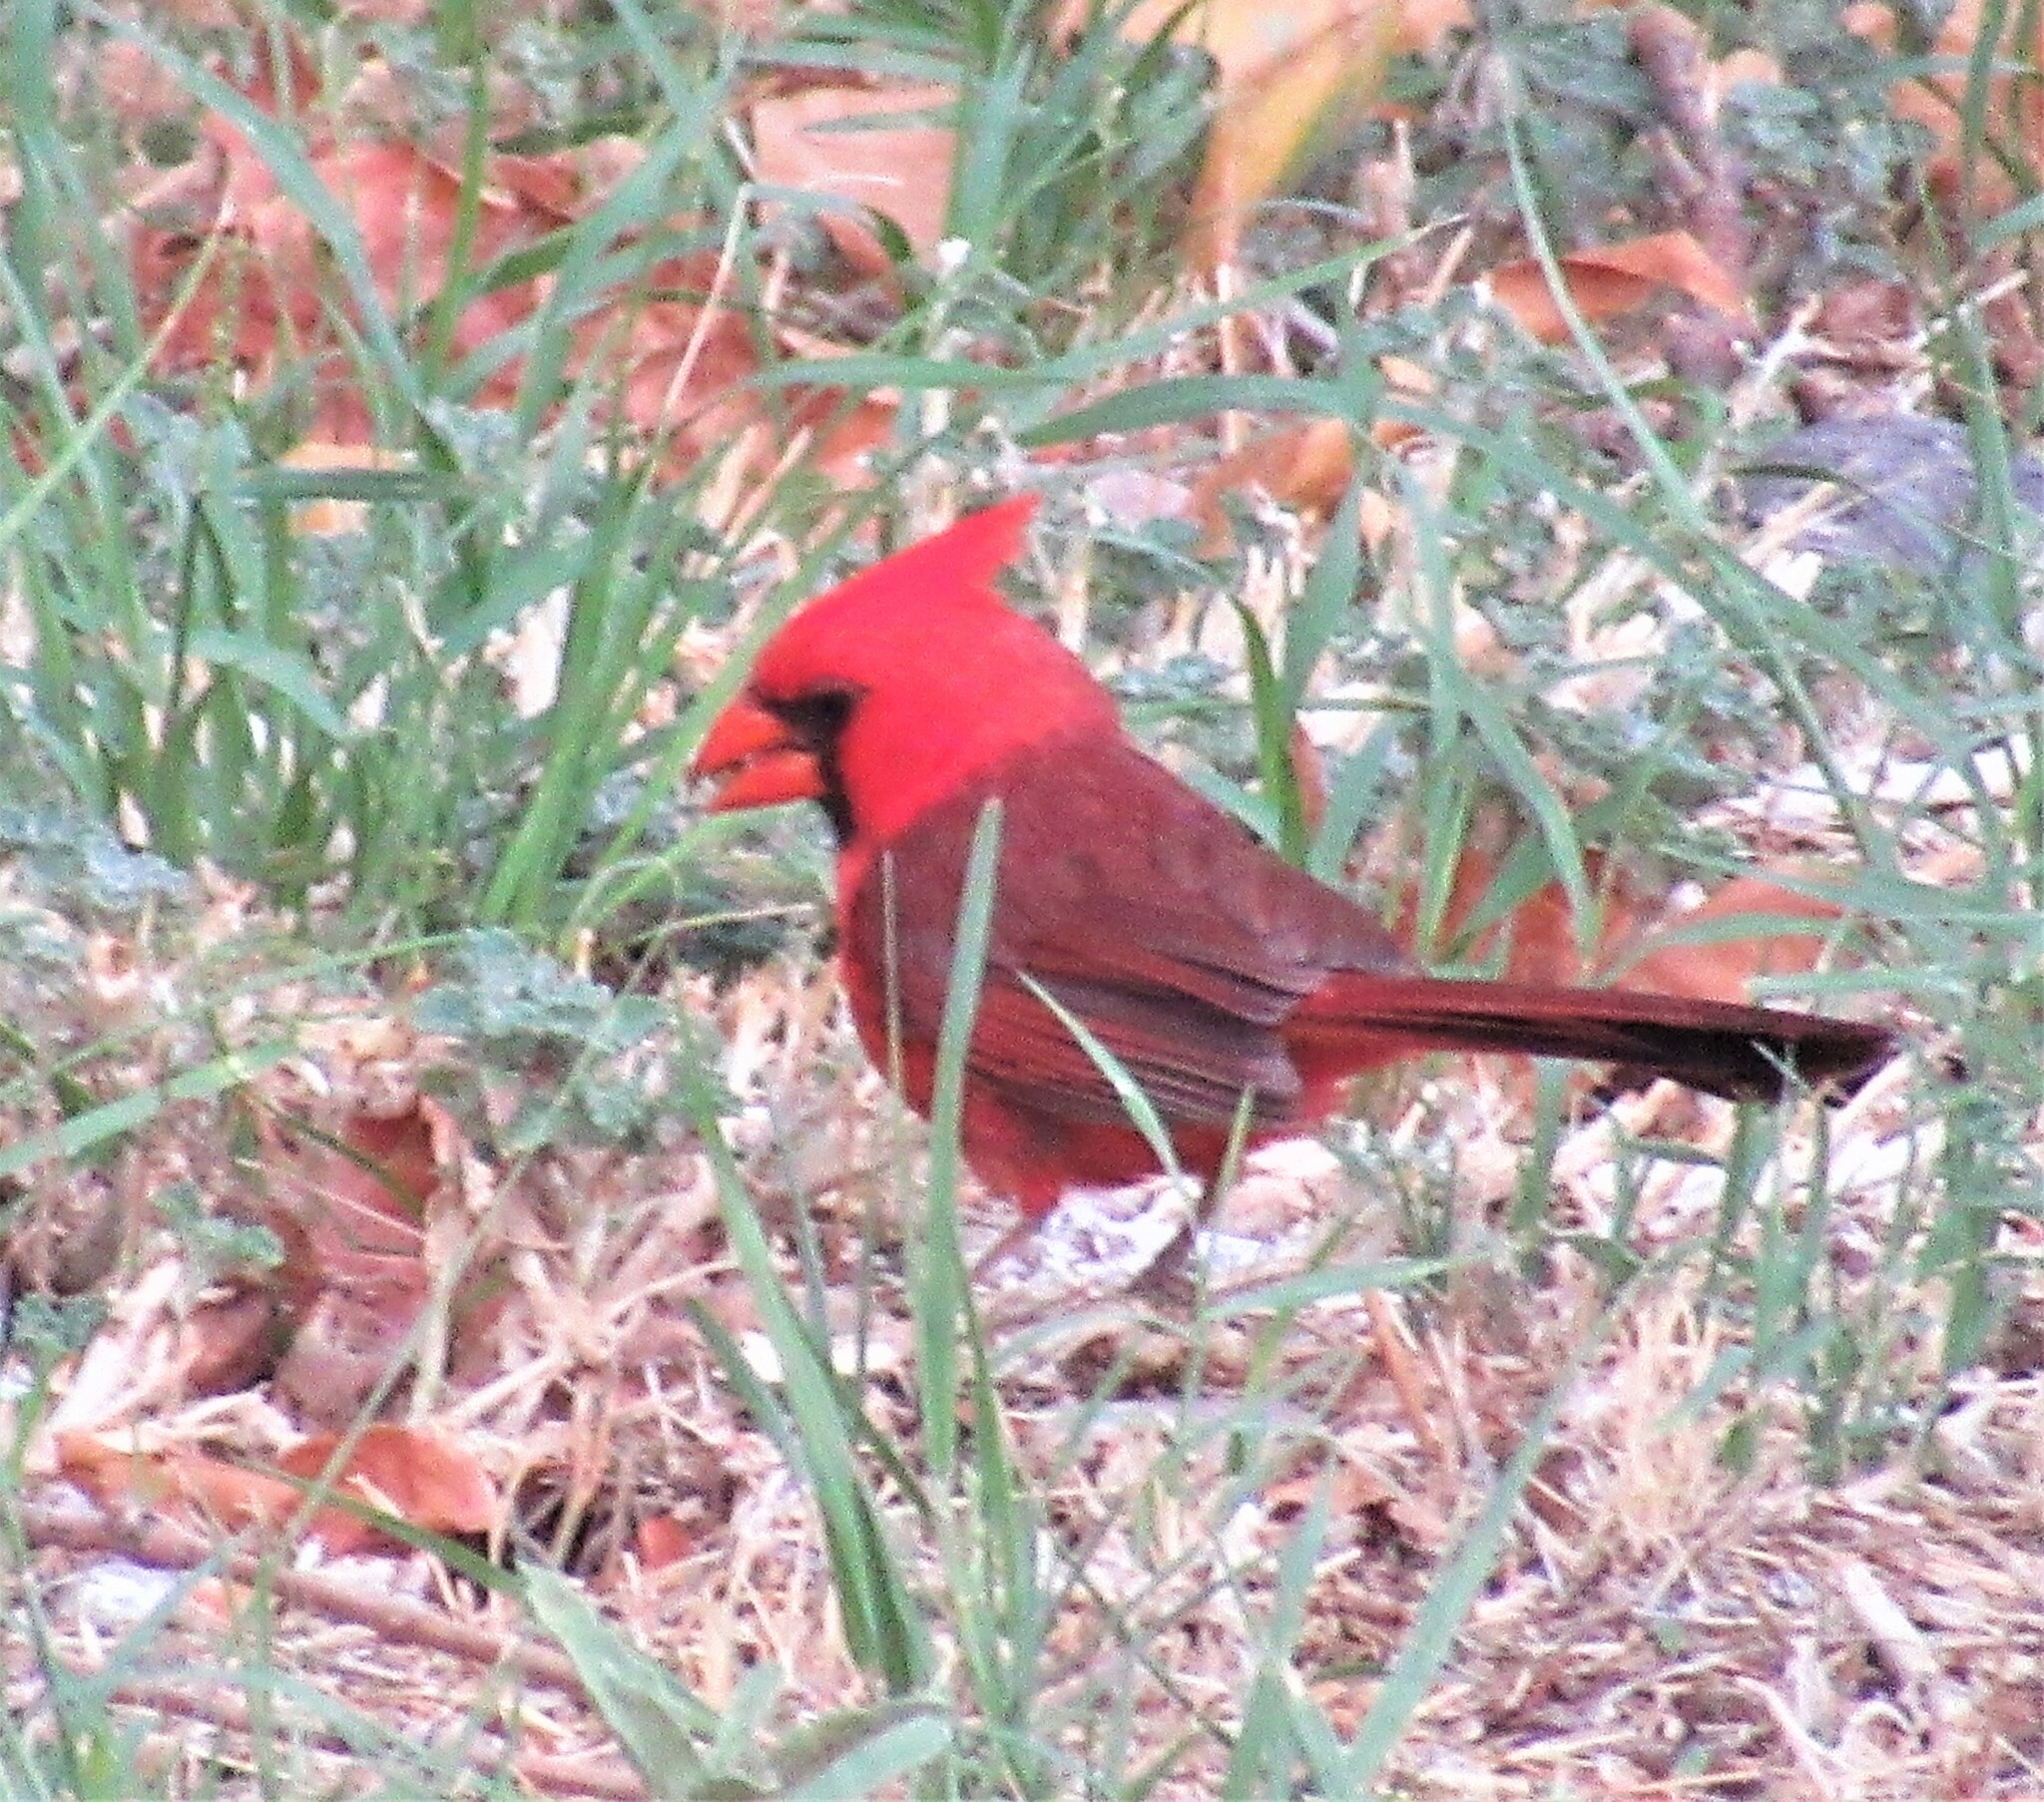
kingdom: Animalia
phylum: Chordata
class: Aves
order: Passeriformes
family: Cardinalidae
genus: Cardinalis
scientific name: Cardinalis cardinalis
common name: Northern cardinal
